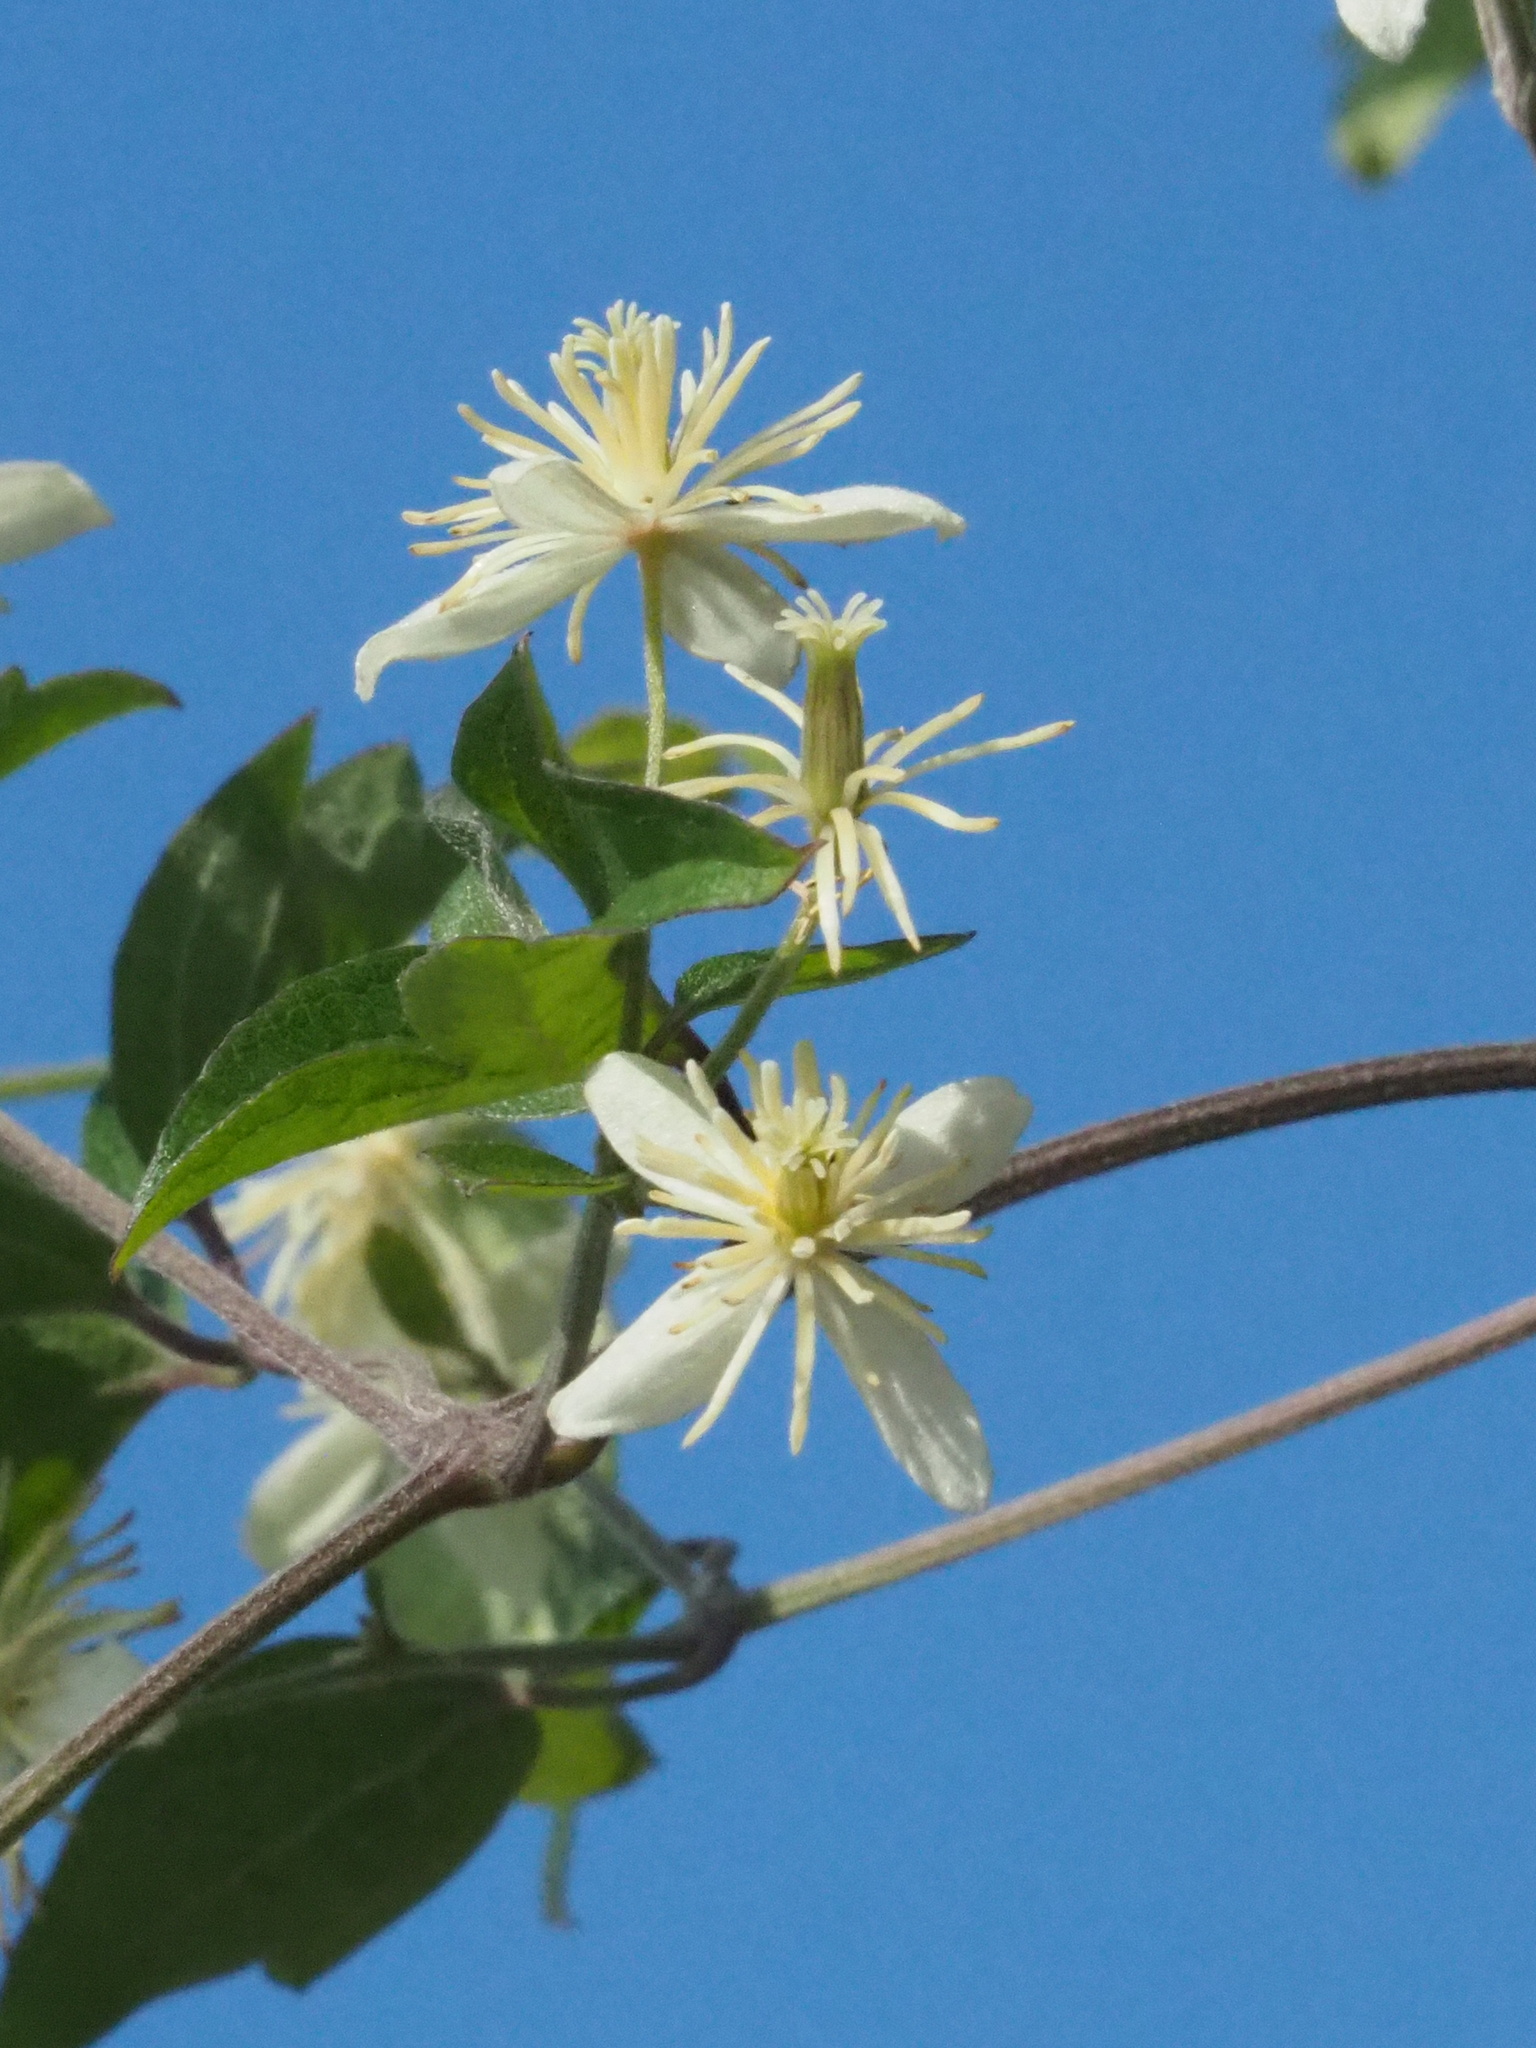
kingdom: Plantae
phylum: Tracheophyta
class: Magnoliopsida
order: Ranunculales
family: Ranunculaceae
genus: Clematis
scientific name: Clematis grata
